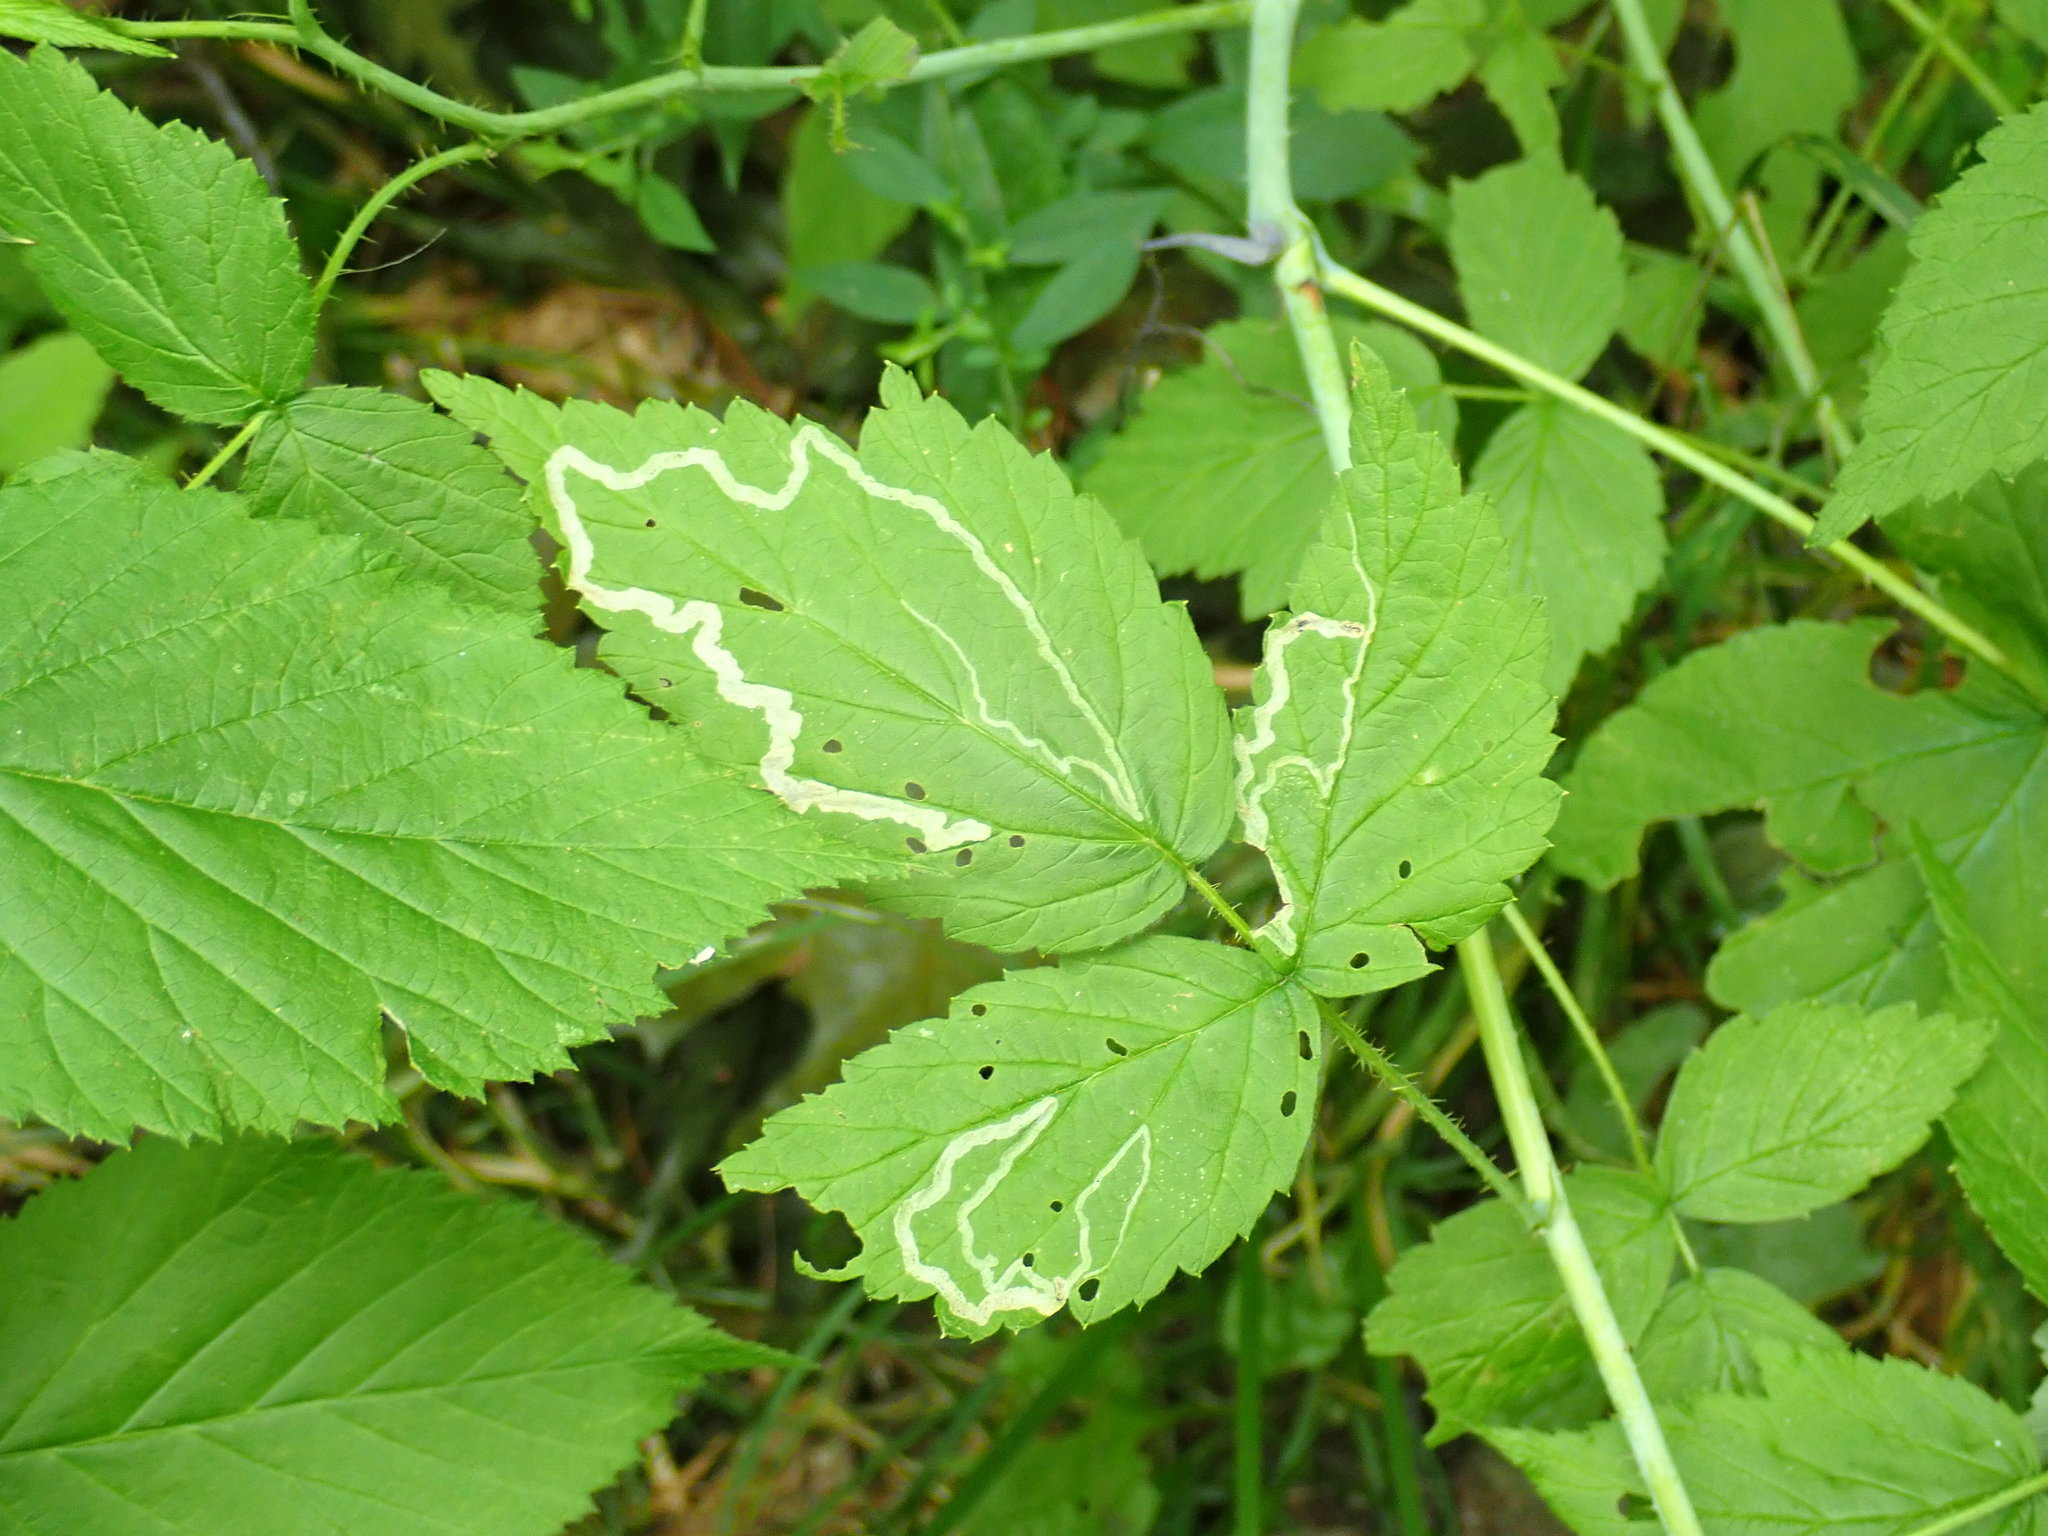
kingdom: Animalia
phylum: Arthropoda
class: Insecta
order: Diptera
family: Agromyzidae
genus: Agromyza
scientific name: Agromyza vockerothi
